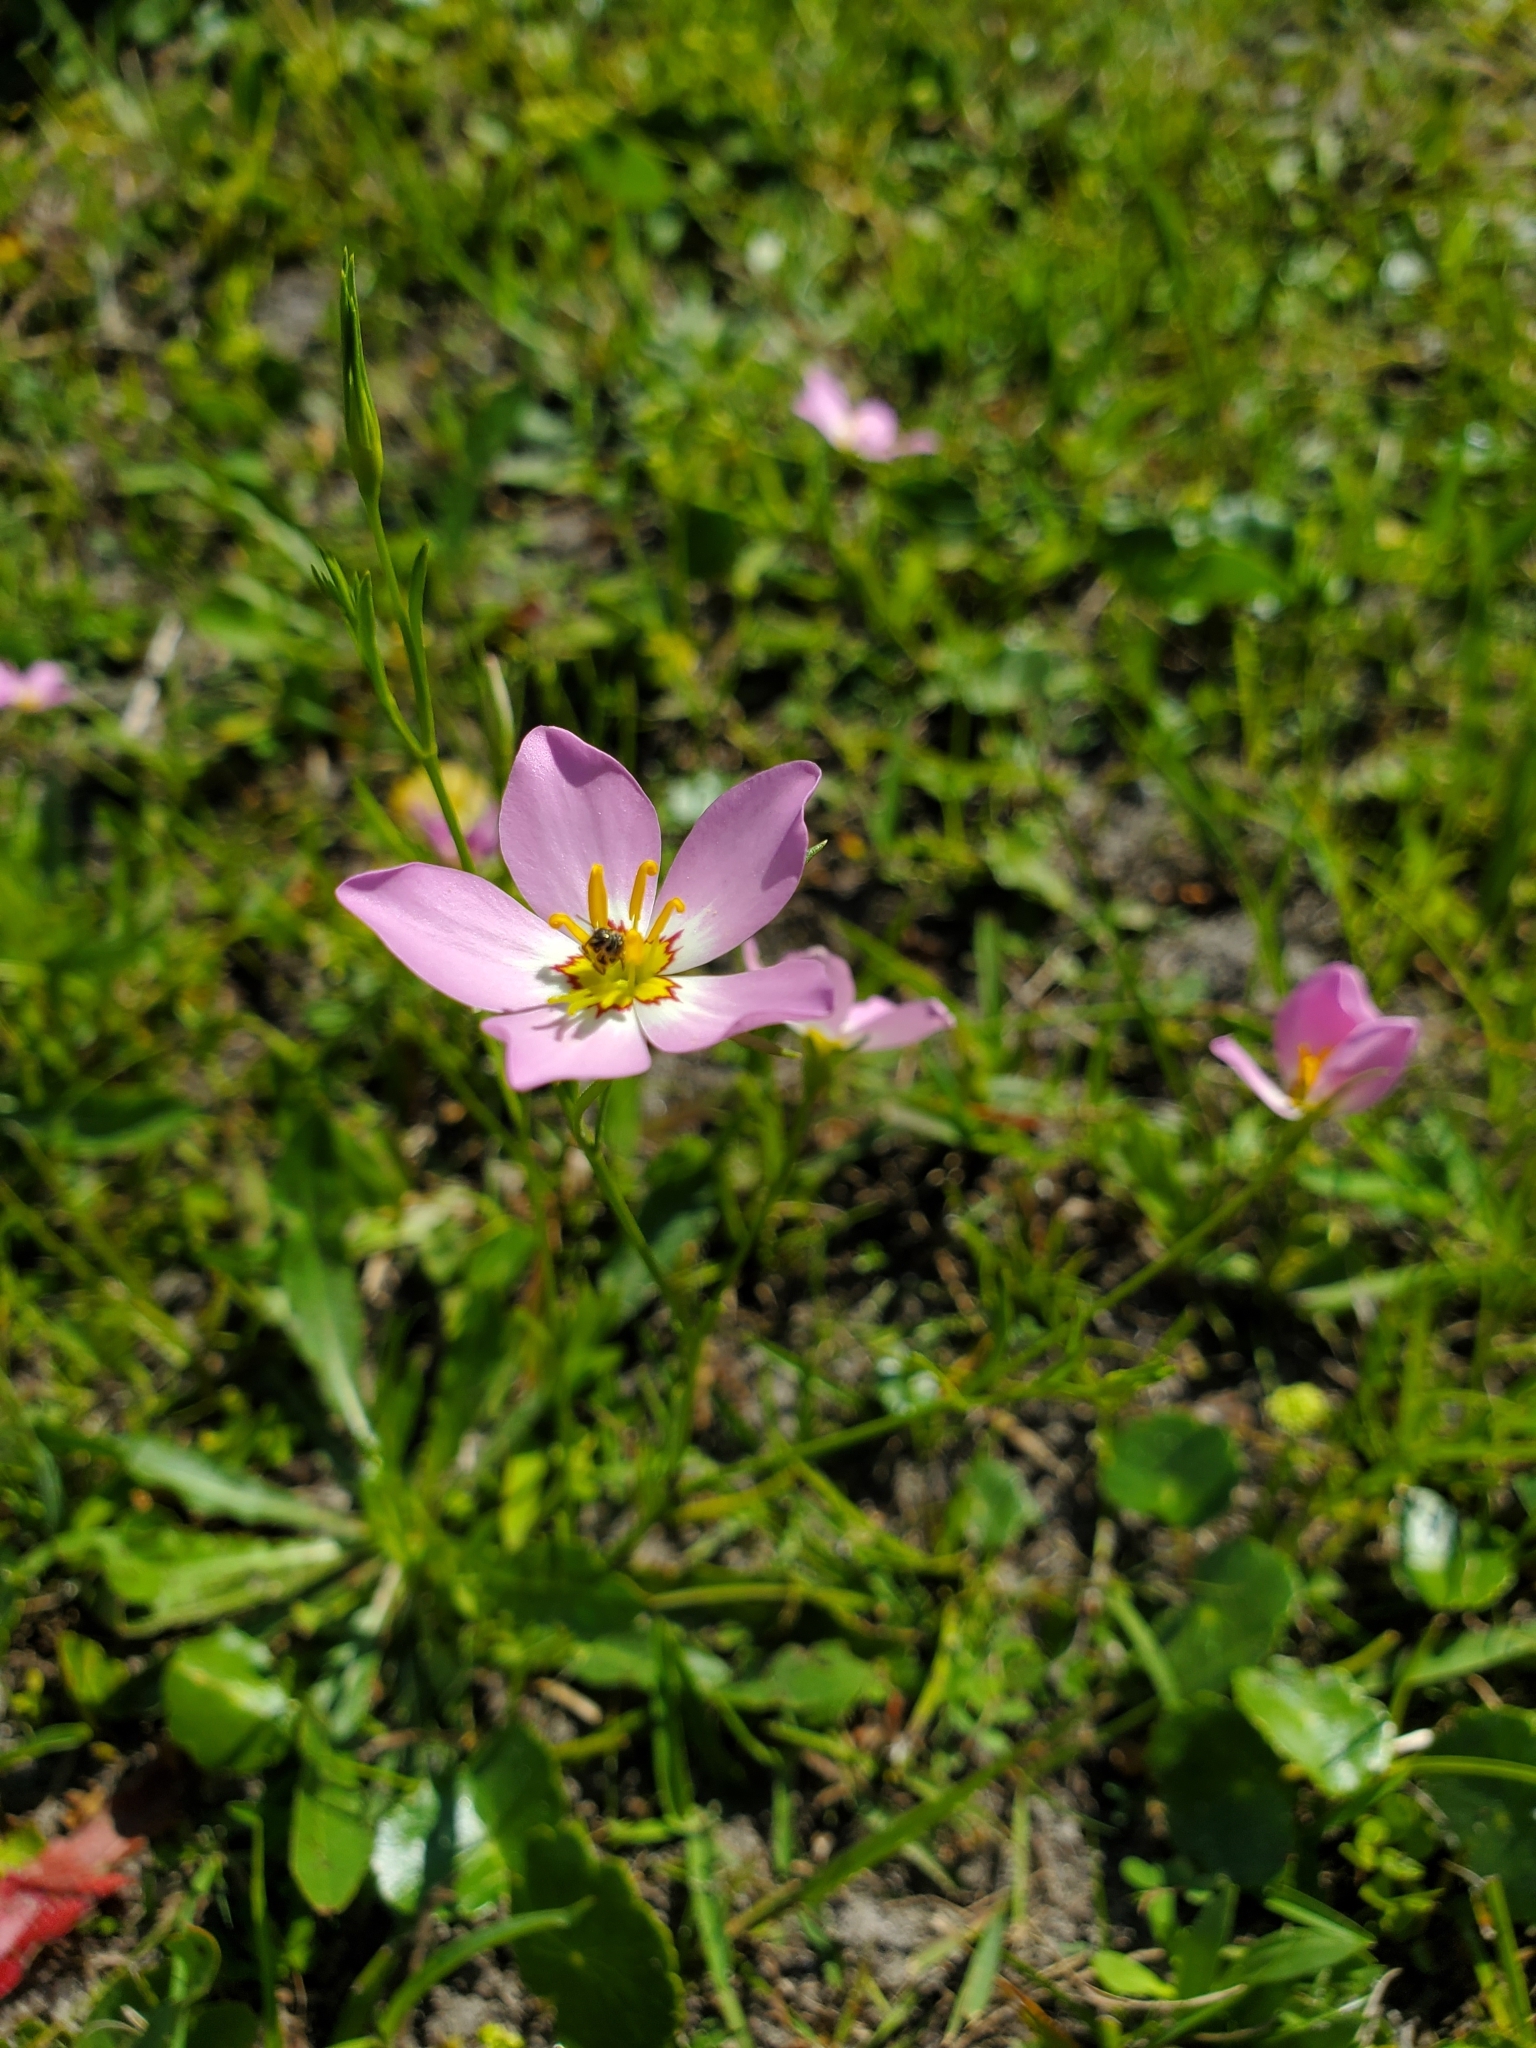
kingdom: Plantae
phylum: Tracheophyta
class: Magnoliopsida
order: Gentianales
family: Gentianaceae
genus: Sabatia
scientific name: Sabatia stellaris
